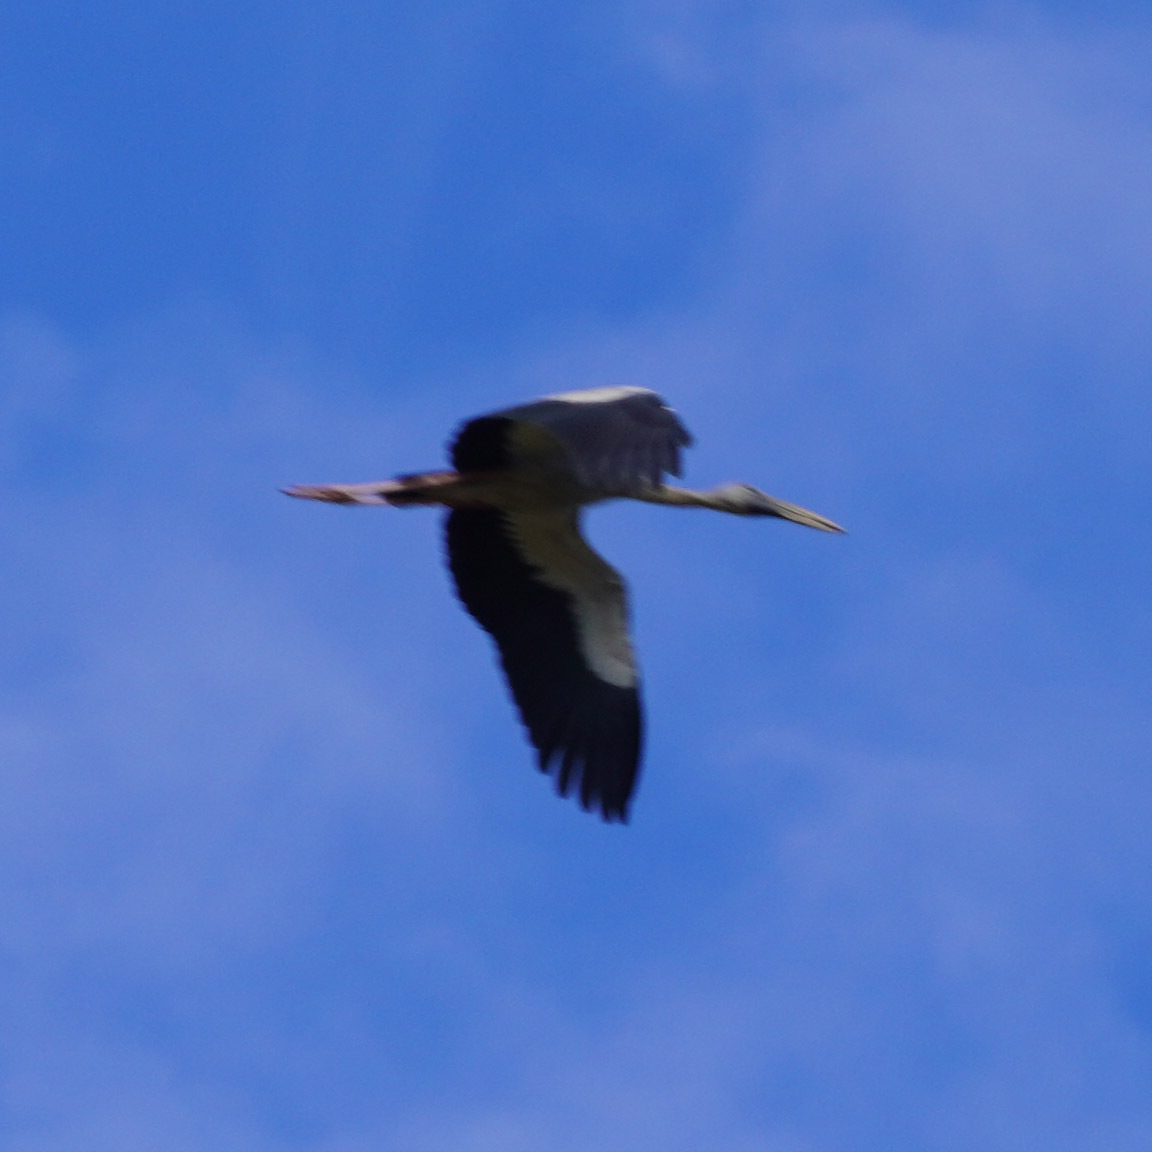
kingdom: Animalia
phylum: Chordata
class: Aves
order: Ciconiiformes
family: Ciconiidae
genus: Anastomus
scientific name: Anastomus oscitans
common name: Asian openbill
